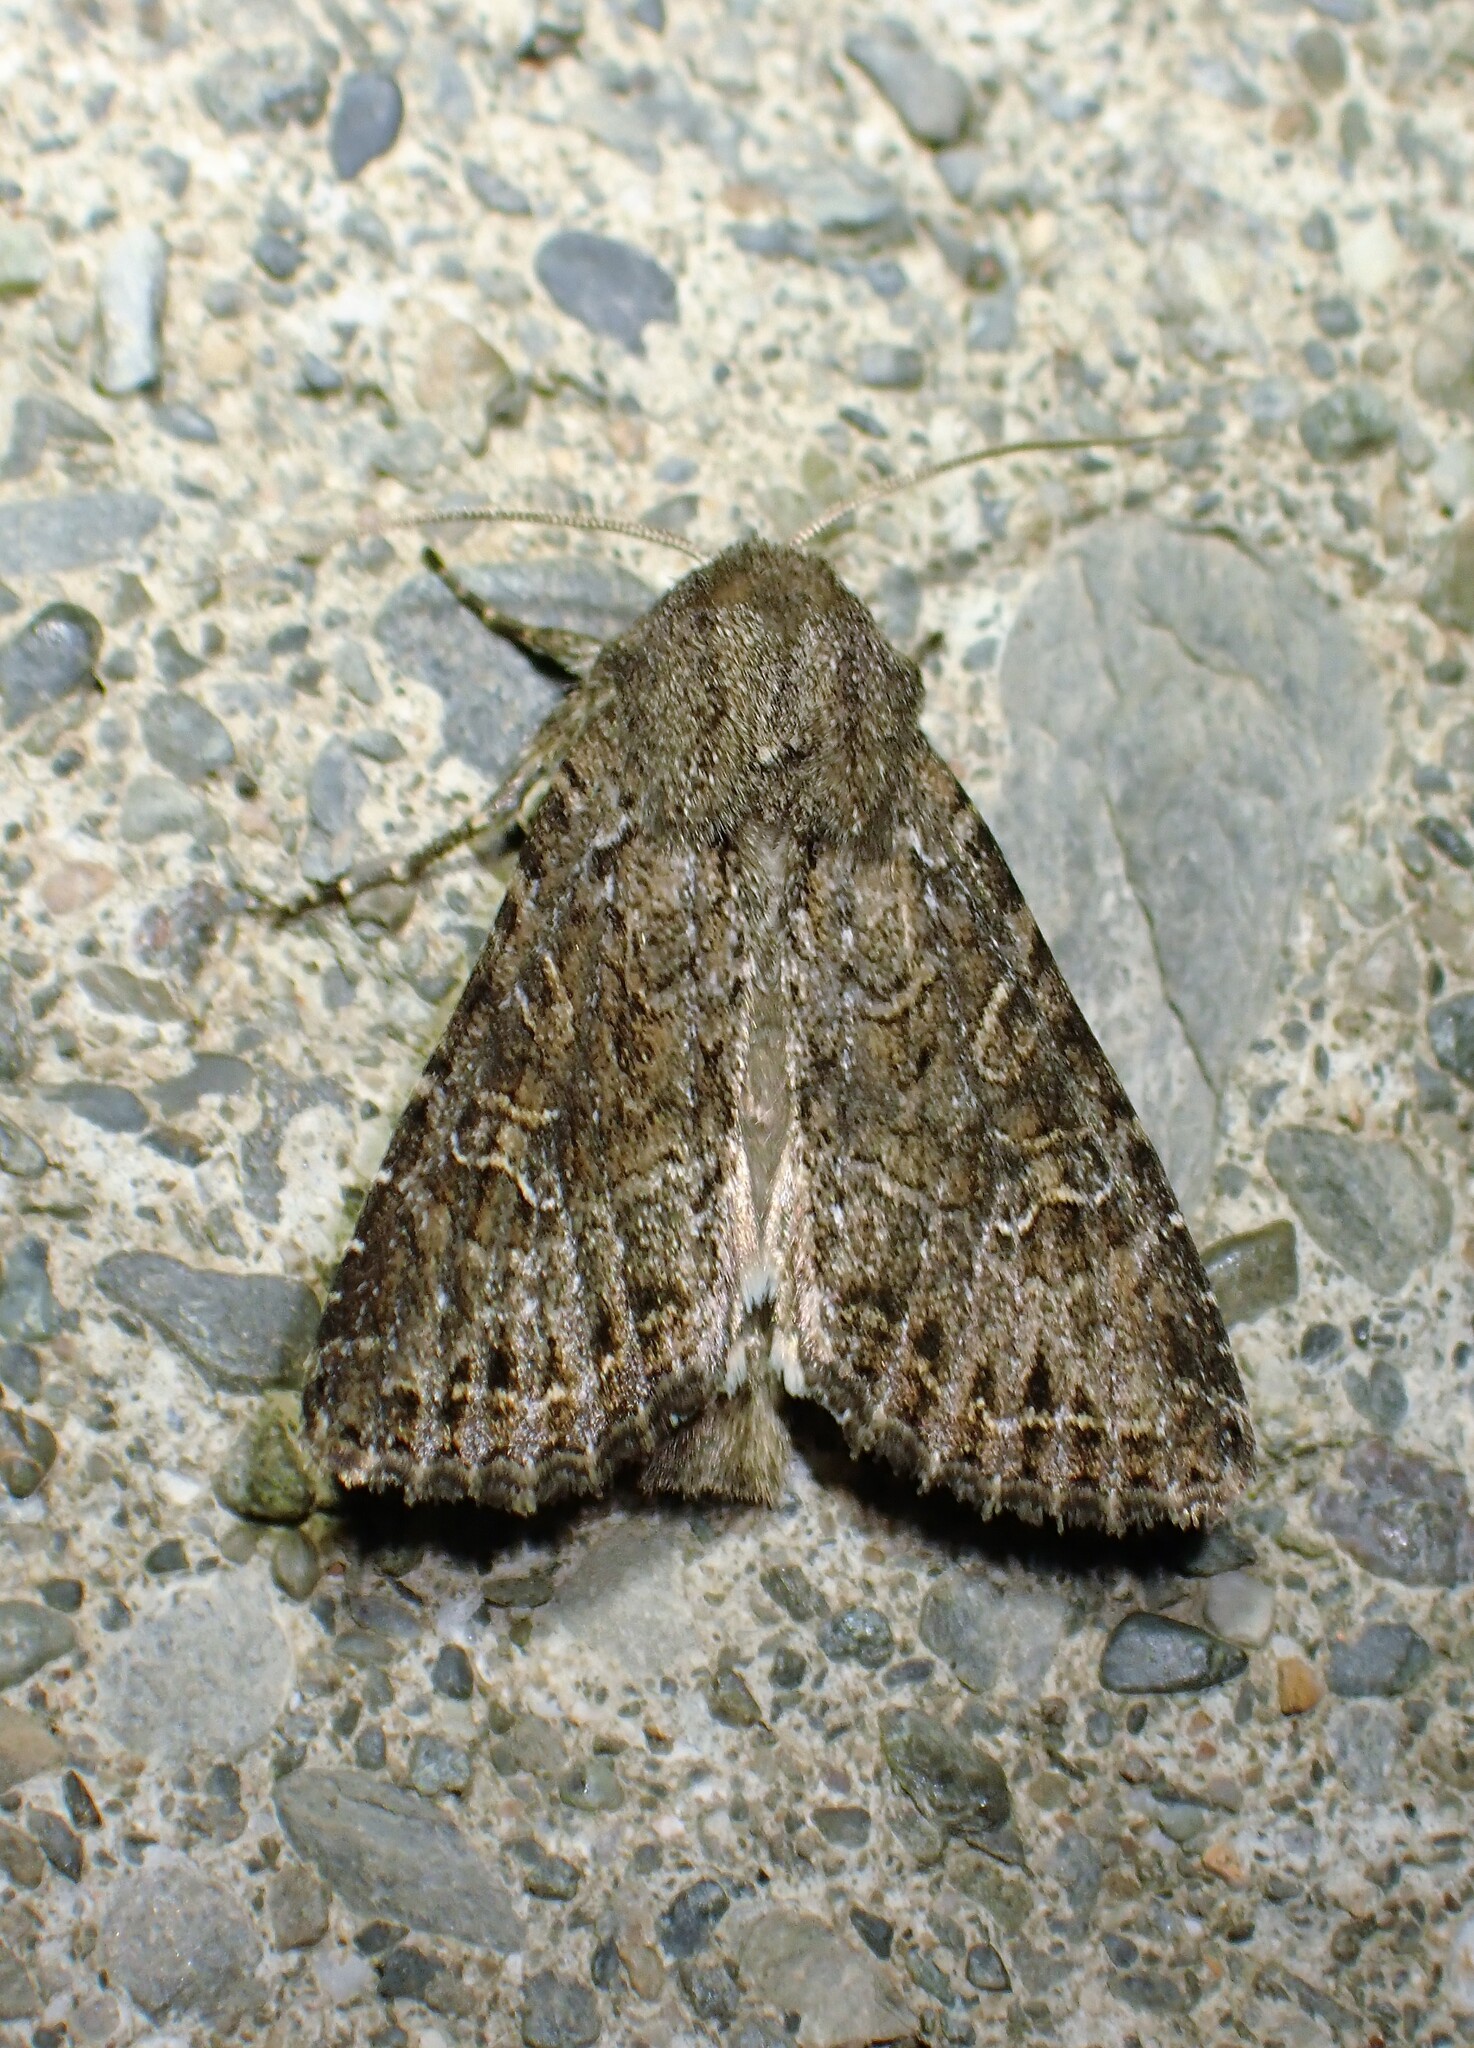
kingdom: Animalia
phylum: Arthropoda
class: Insecta
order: Lepidoptera
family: Noctuidae
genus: Apamea
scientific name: Apamea devastator
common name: Glassy cutworm
